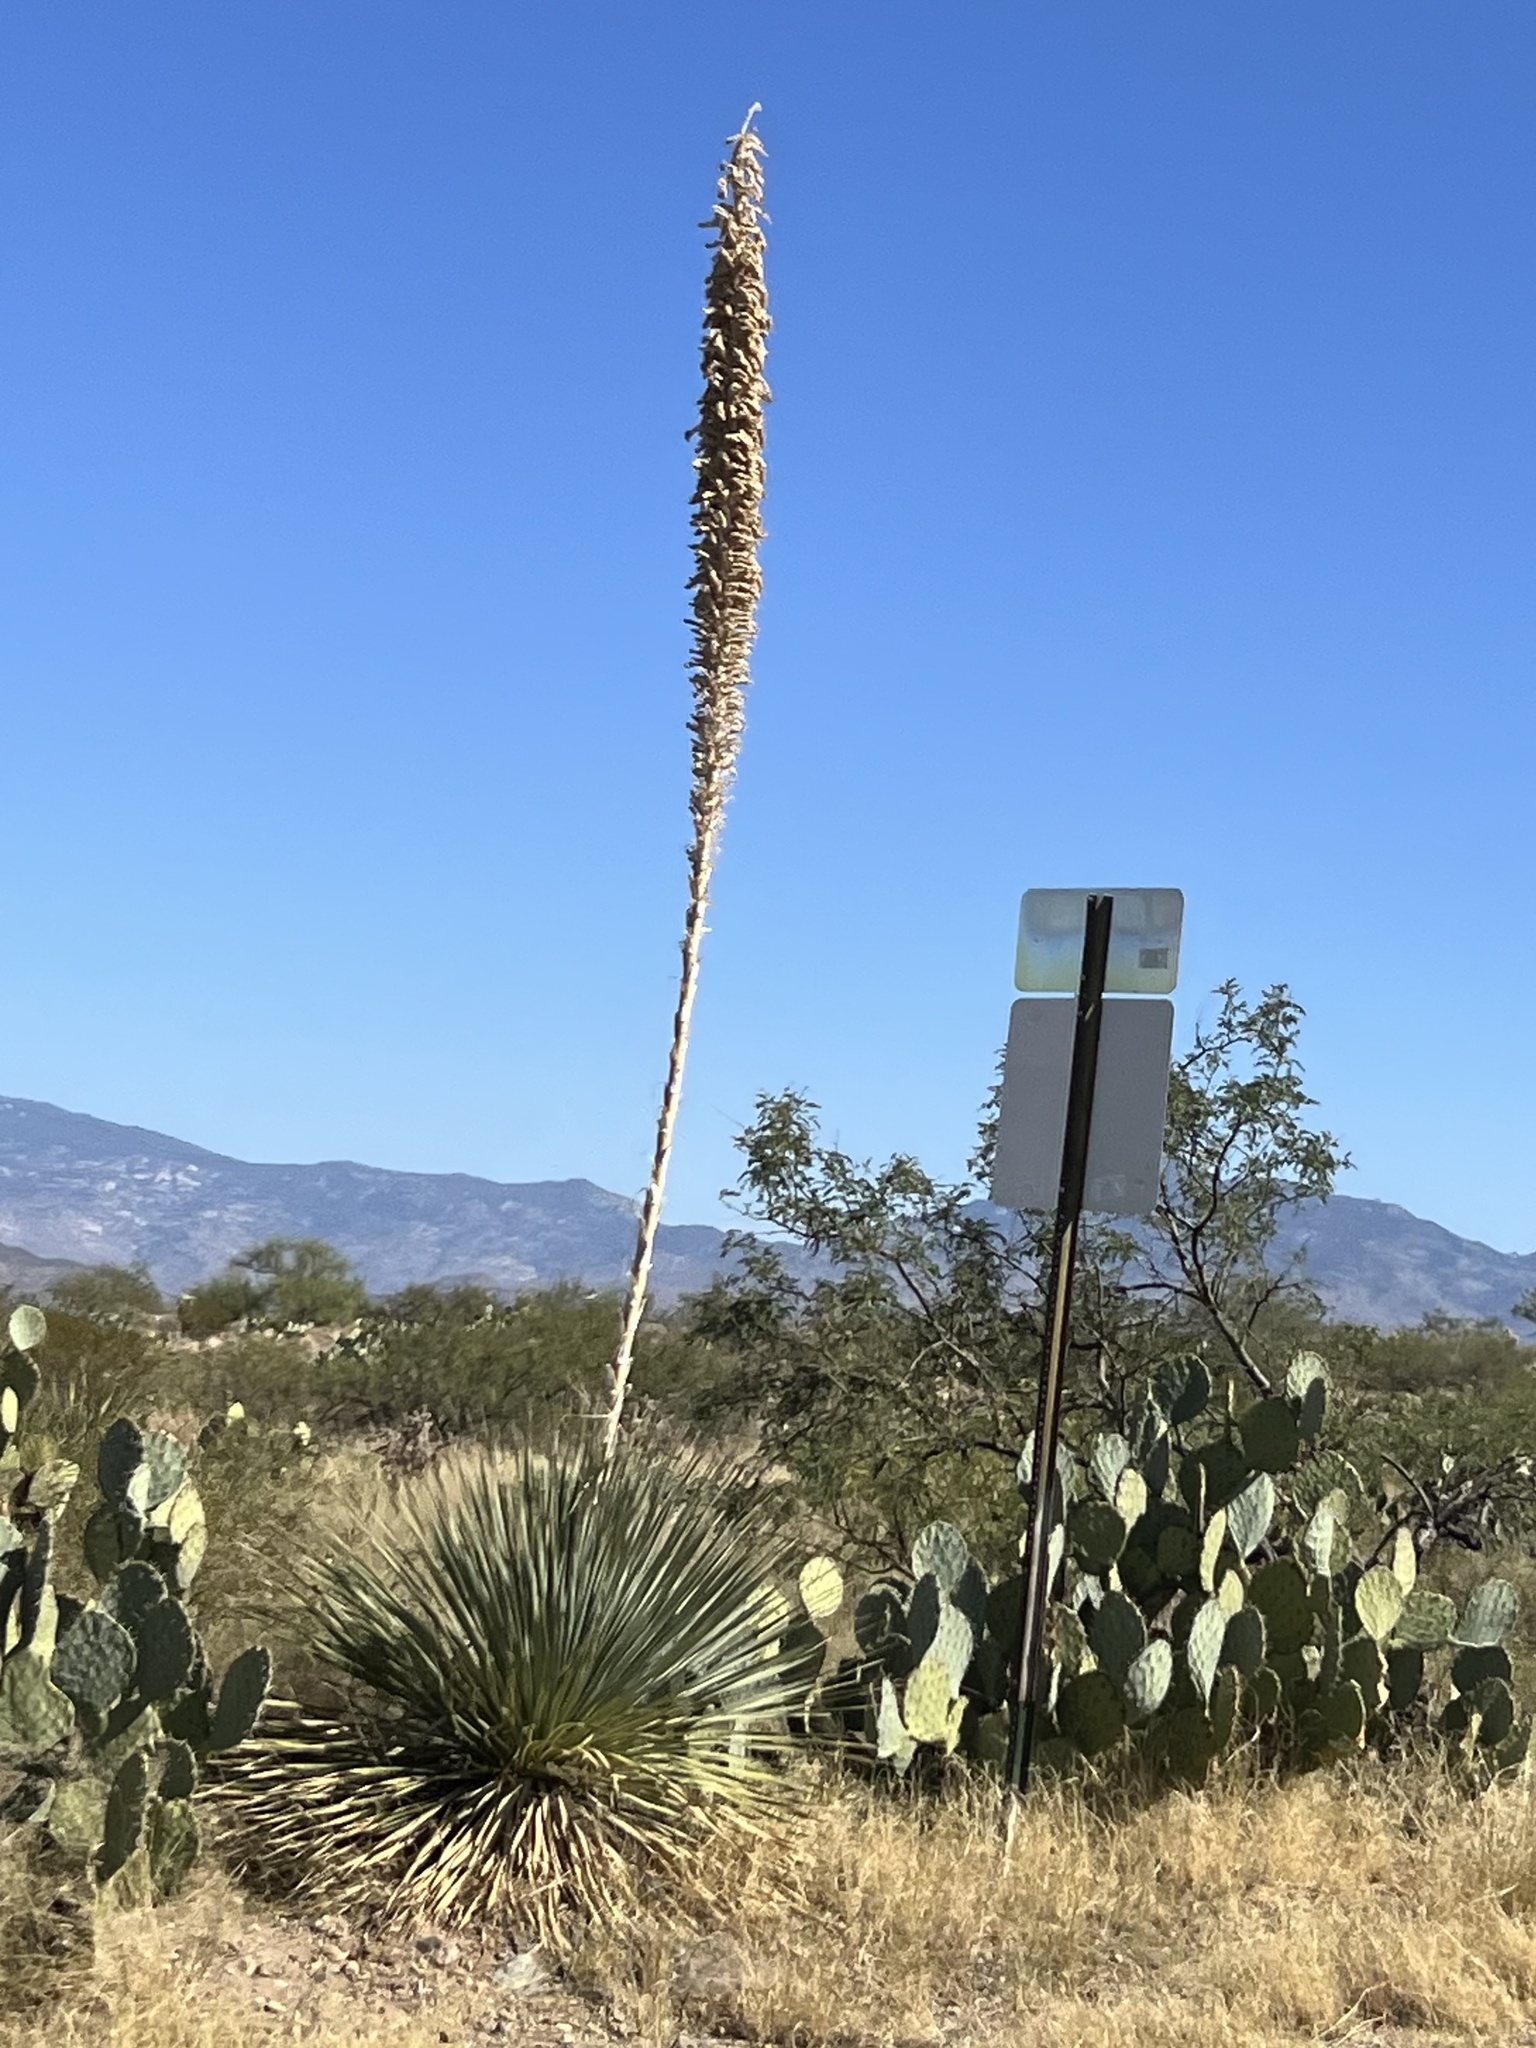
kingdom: Plantae
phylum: Tracheophyta
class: Liliopsida
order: Asparagales
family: Asparagaceae
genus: Dasylirion
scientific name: Dasylirion wheeleri
